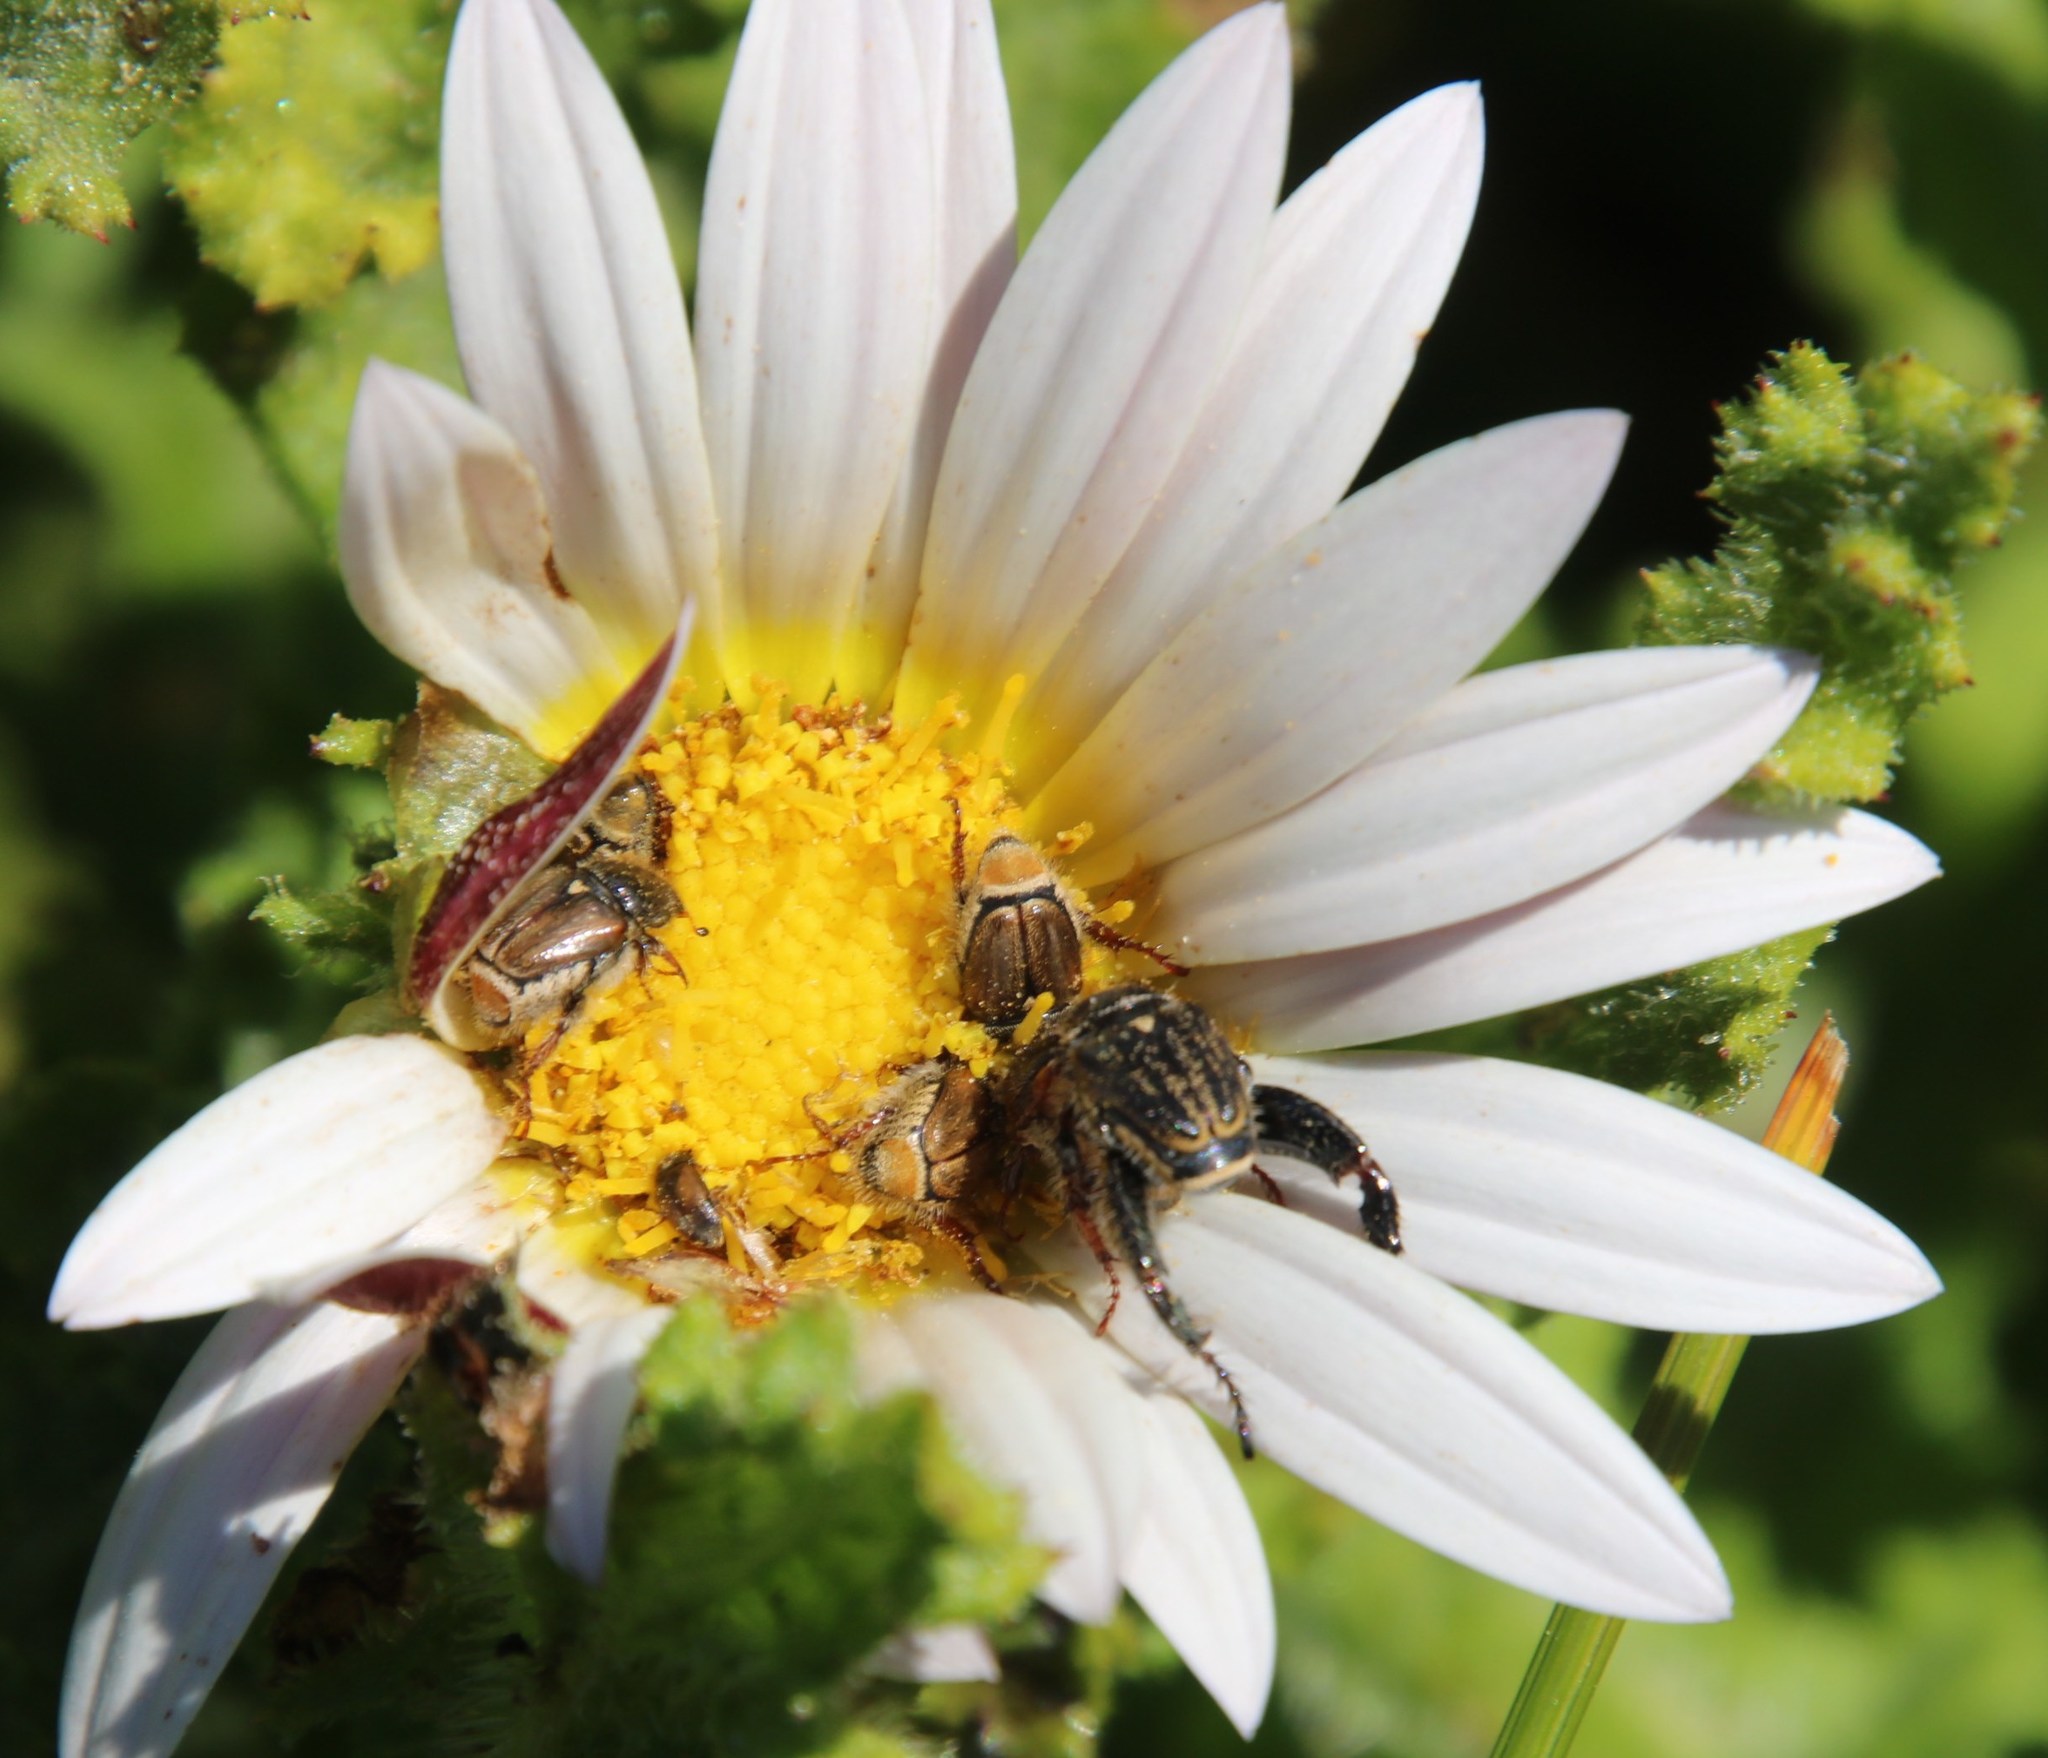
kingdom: Plantae
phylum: Tracheophyta
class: Magnoliopsida
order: Asterales
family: Asteraceae
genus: Arctotis
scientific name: Arctotis aspera
